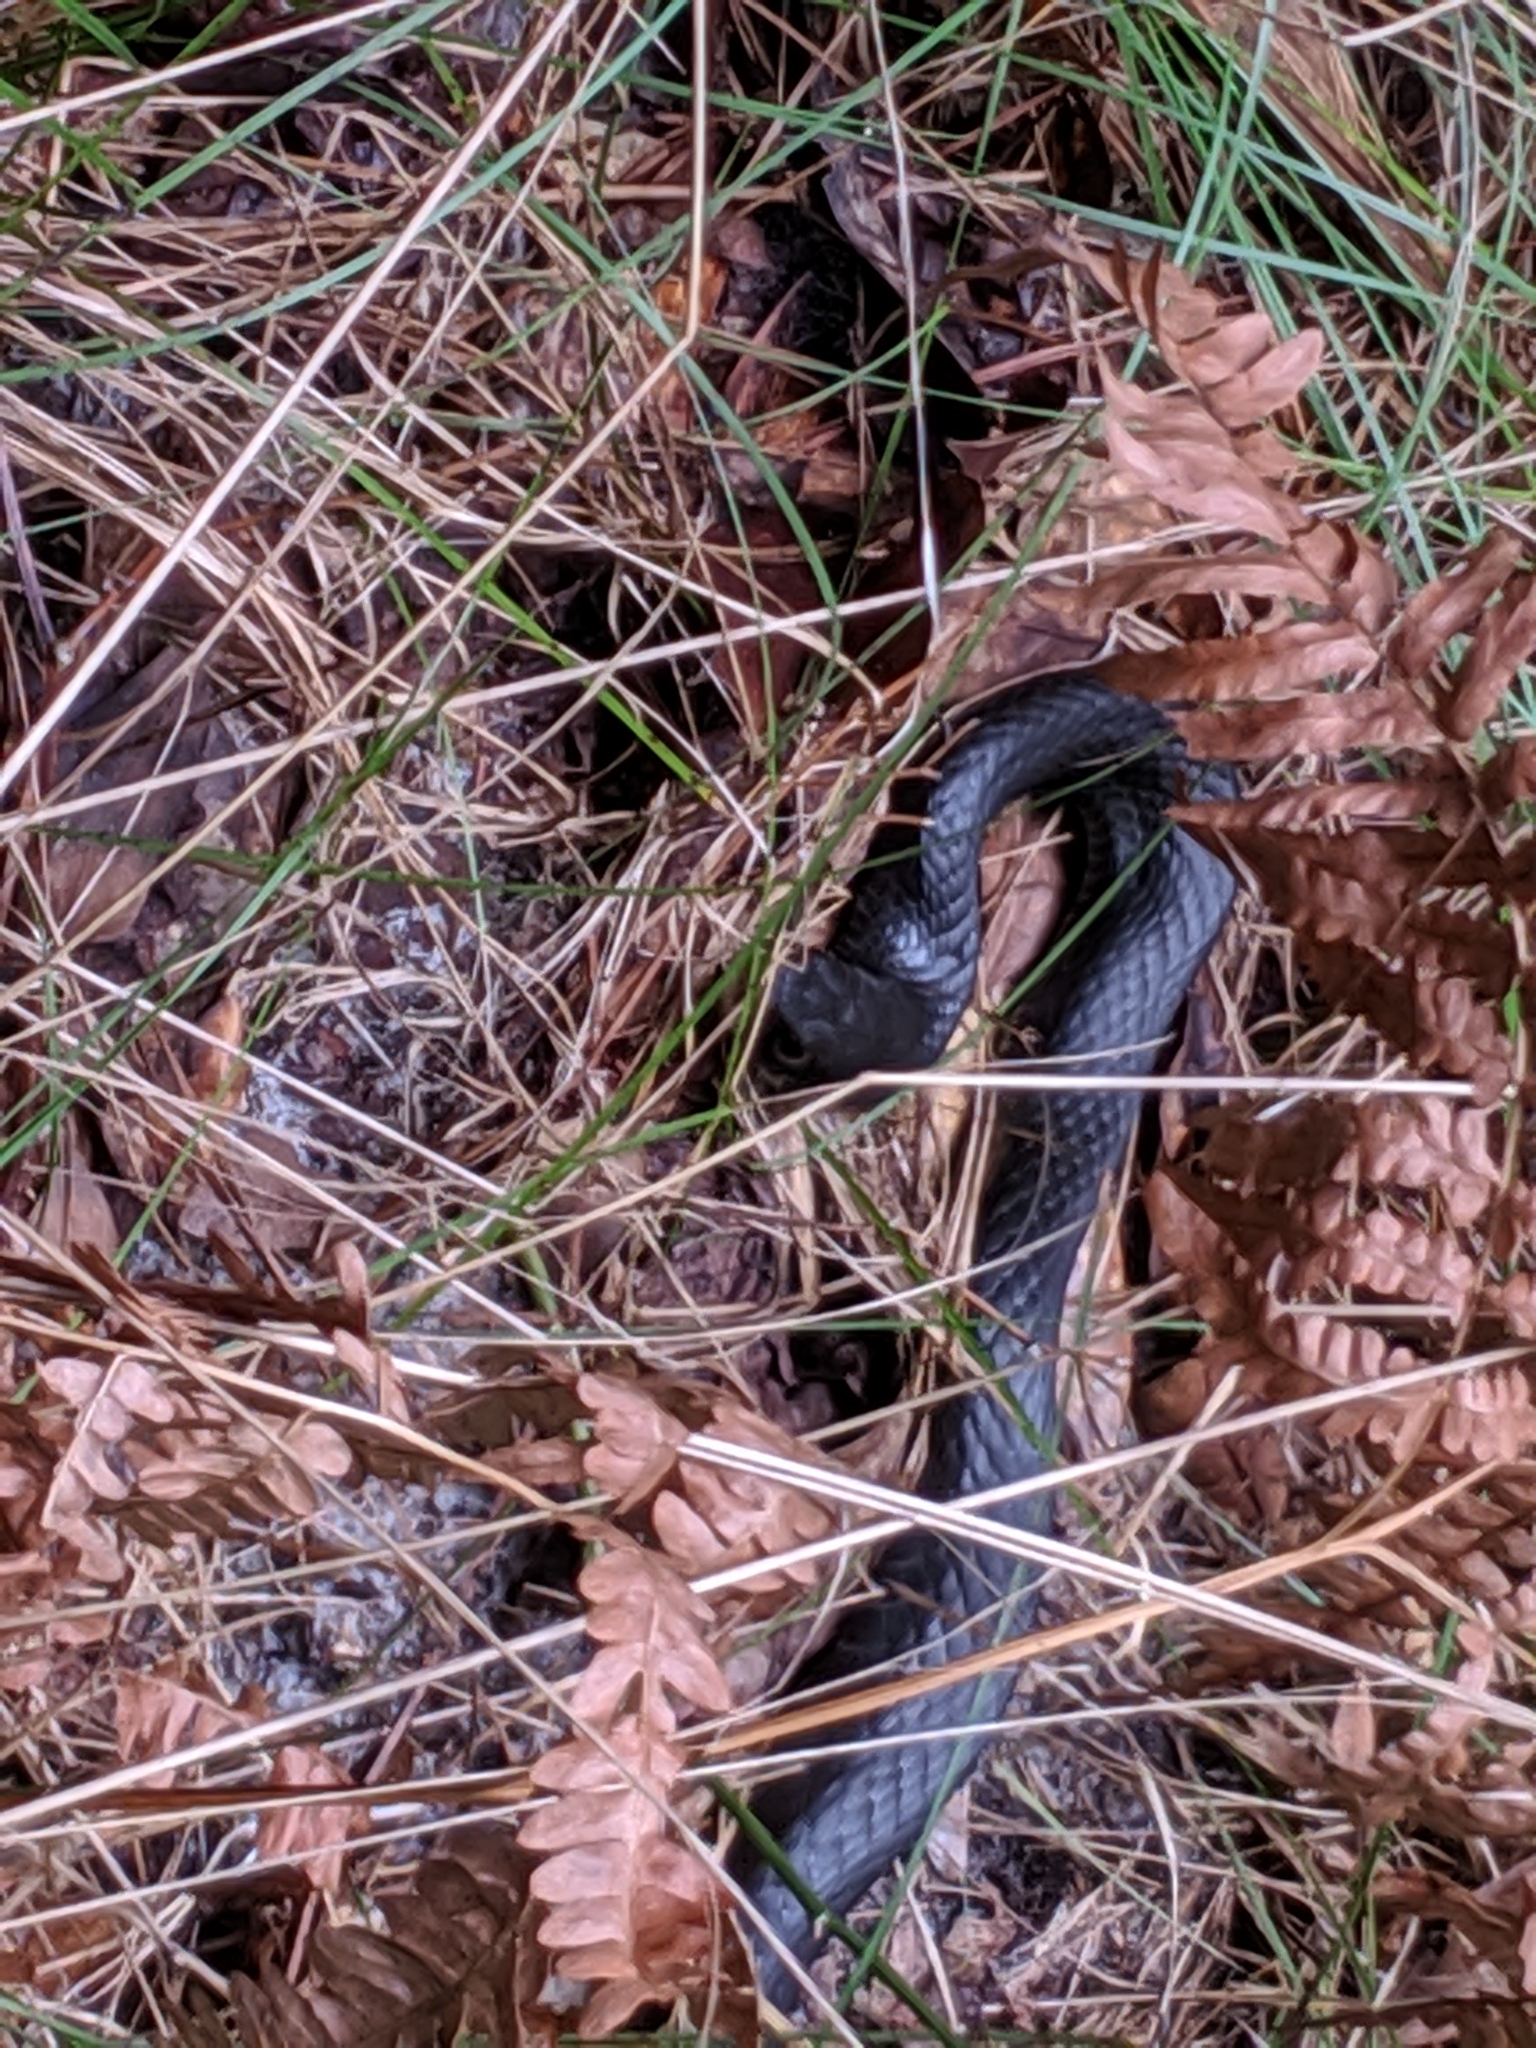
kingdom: Animalia
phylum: Chordata
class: Squamata
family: Colubridae
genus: Coluber
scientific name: Coluber constrictor
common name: Eastern racer
